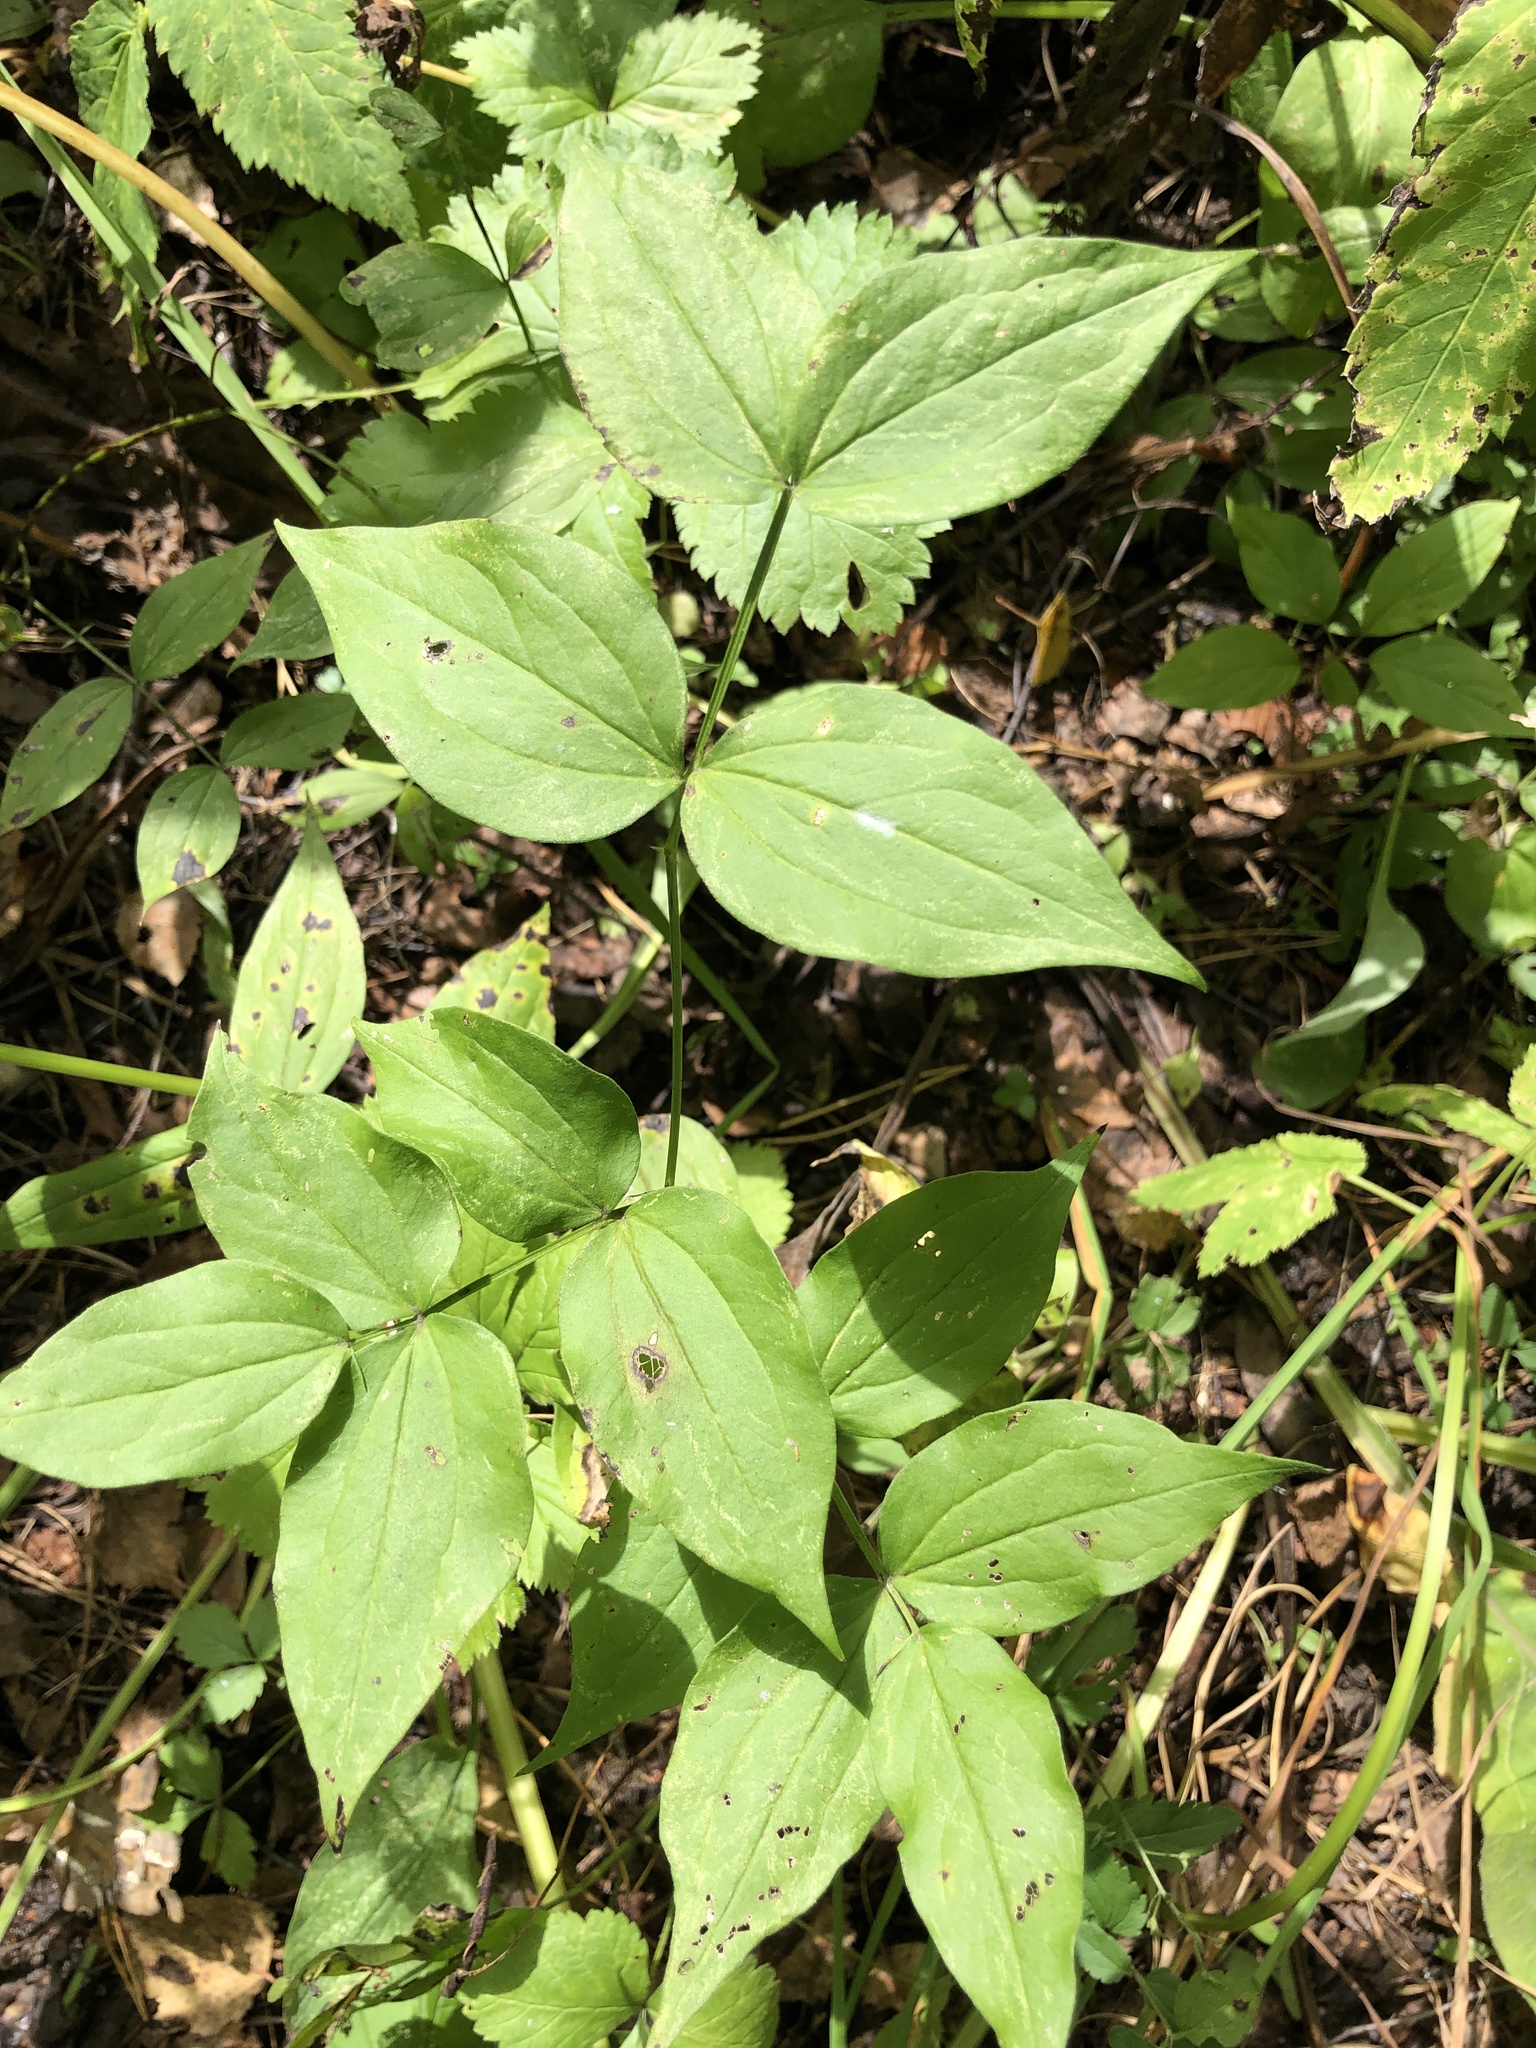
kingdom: Plantae
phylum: Tracheophyta
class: Magnoliopsida
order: Fabales
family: Fabaceae
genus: Lathyrus
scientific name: Lathyrus vernus
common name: Spring pea
